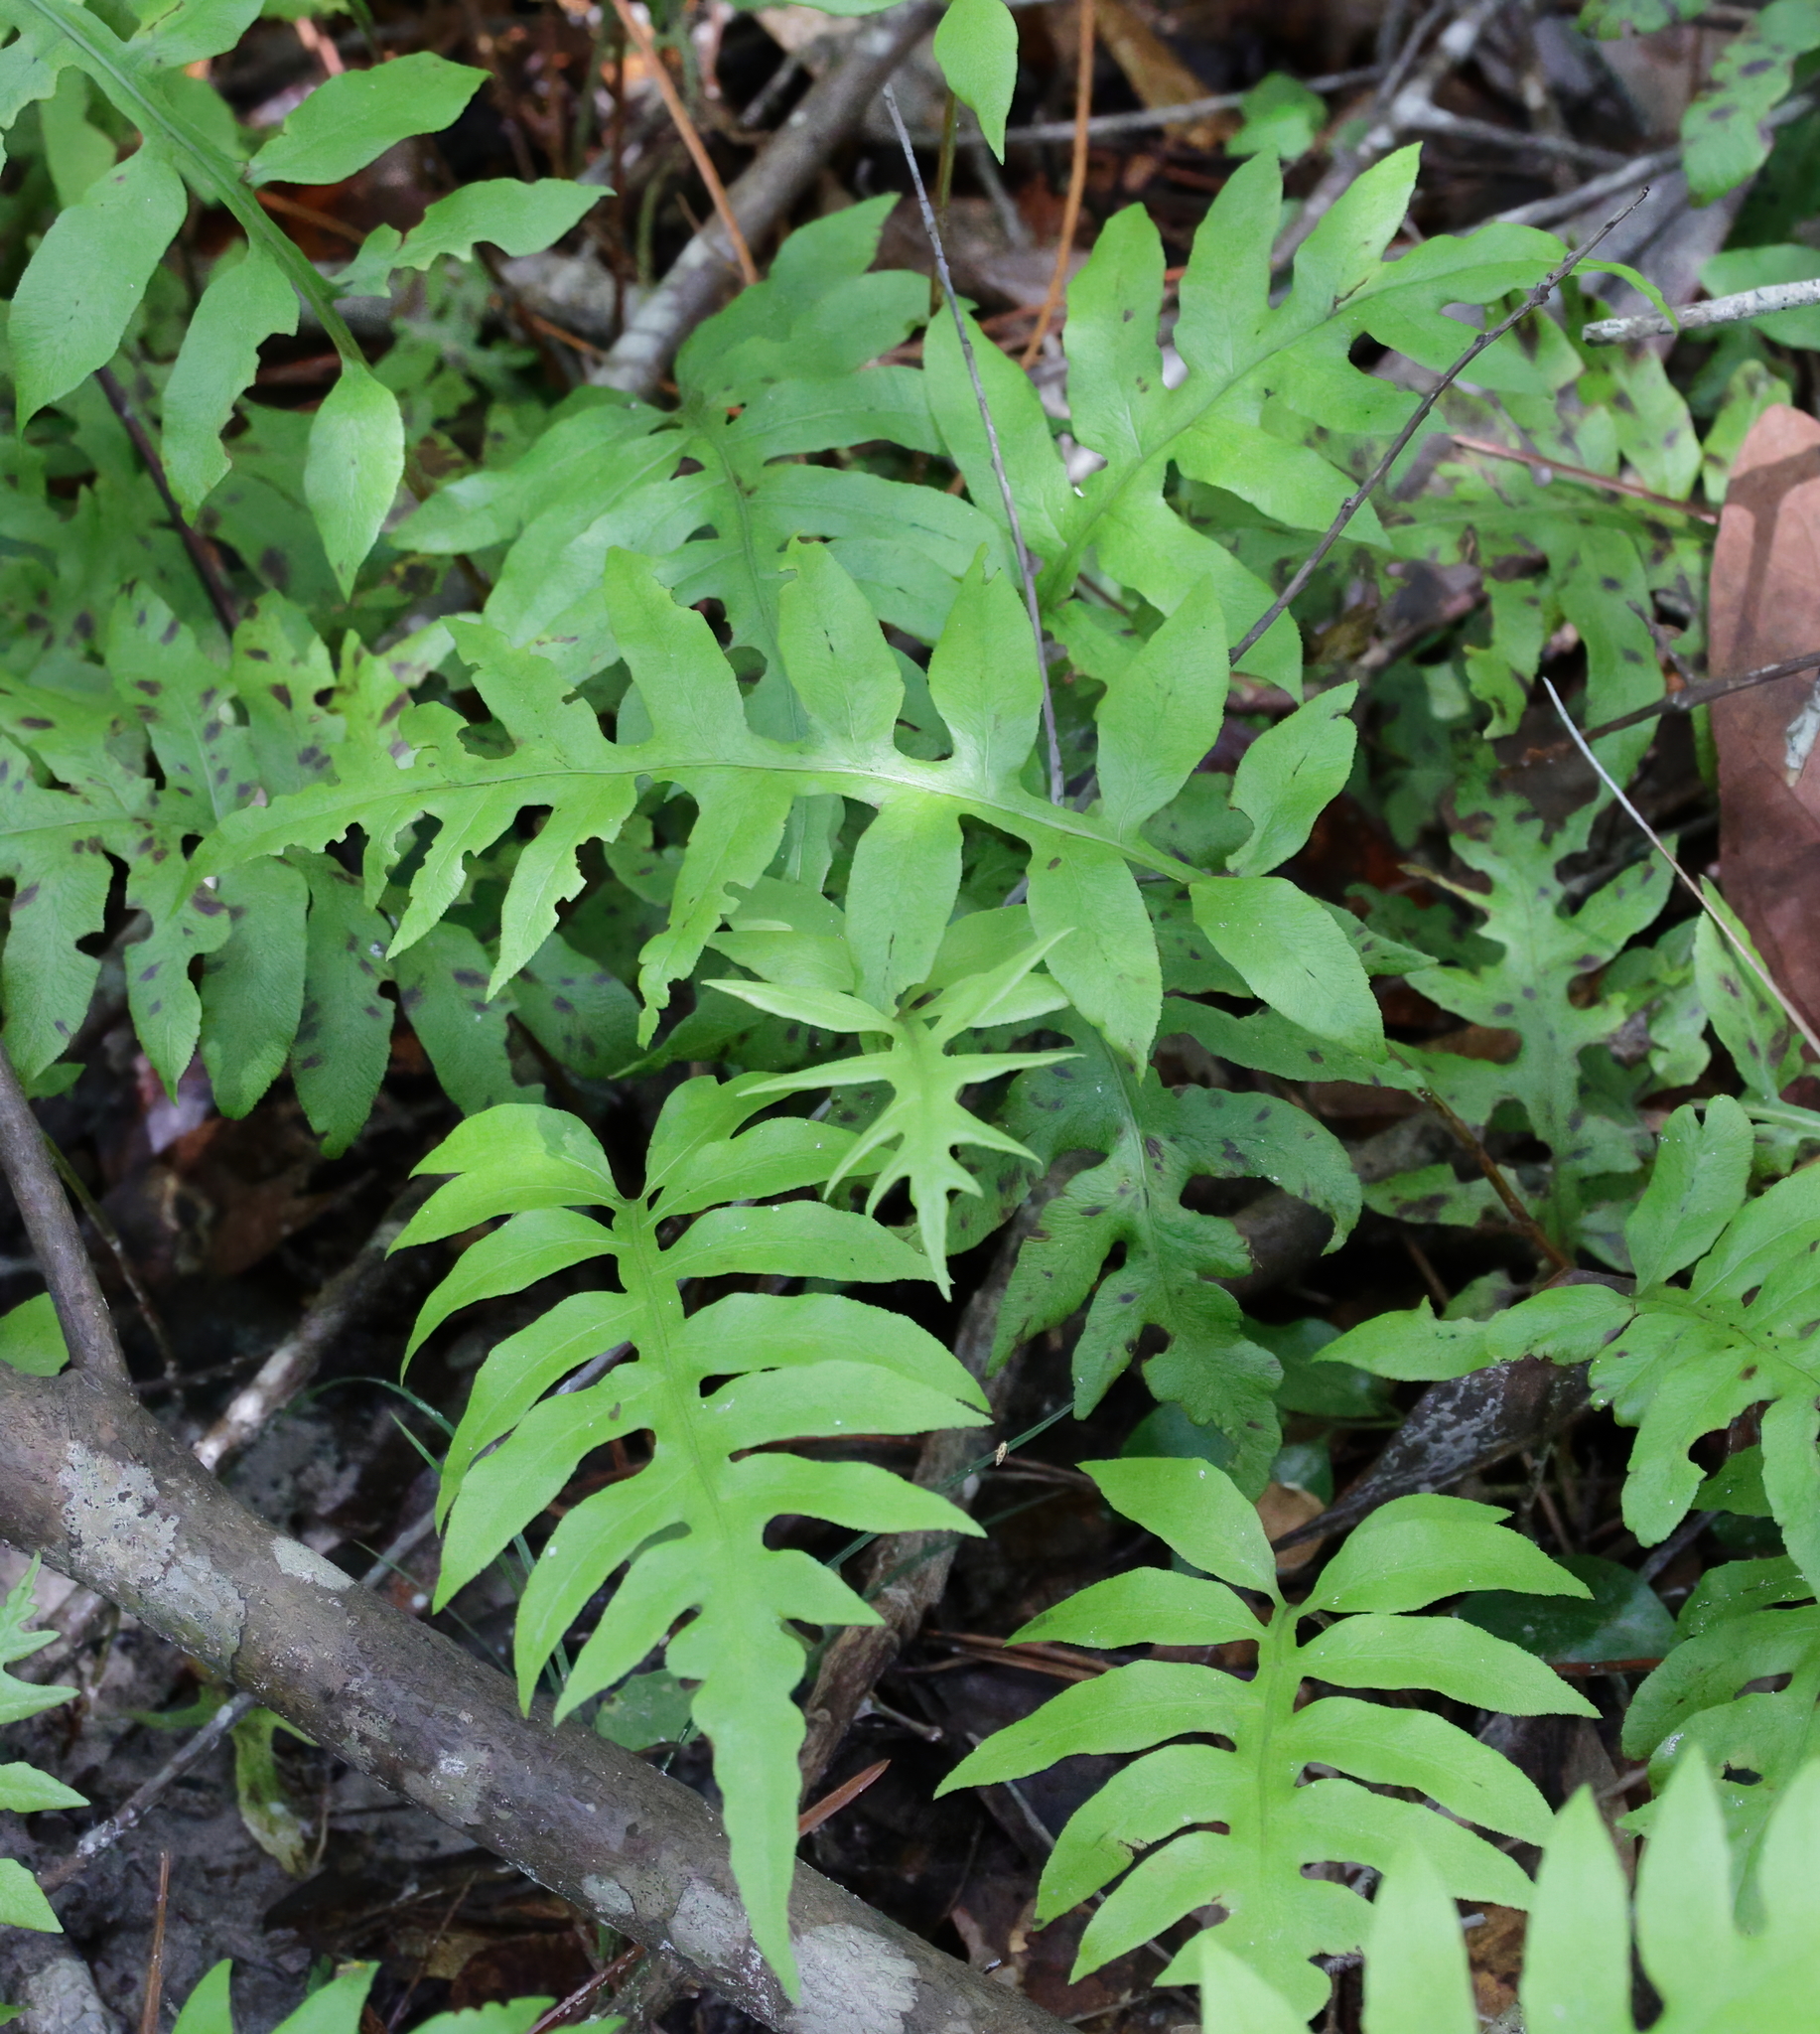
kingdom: Plantae
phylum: Tracheophyta
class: Polypodiopsida
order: Polypodiales
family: Blechnaceae
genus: Lorinseria
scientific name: Lorinseria areolata
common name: Dwarf chain fern
